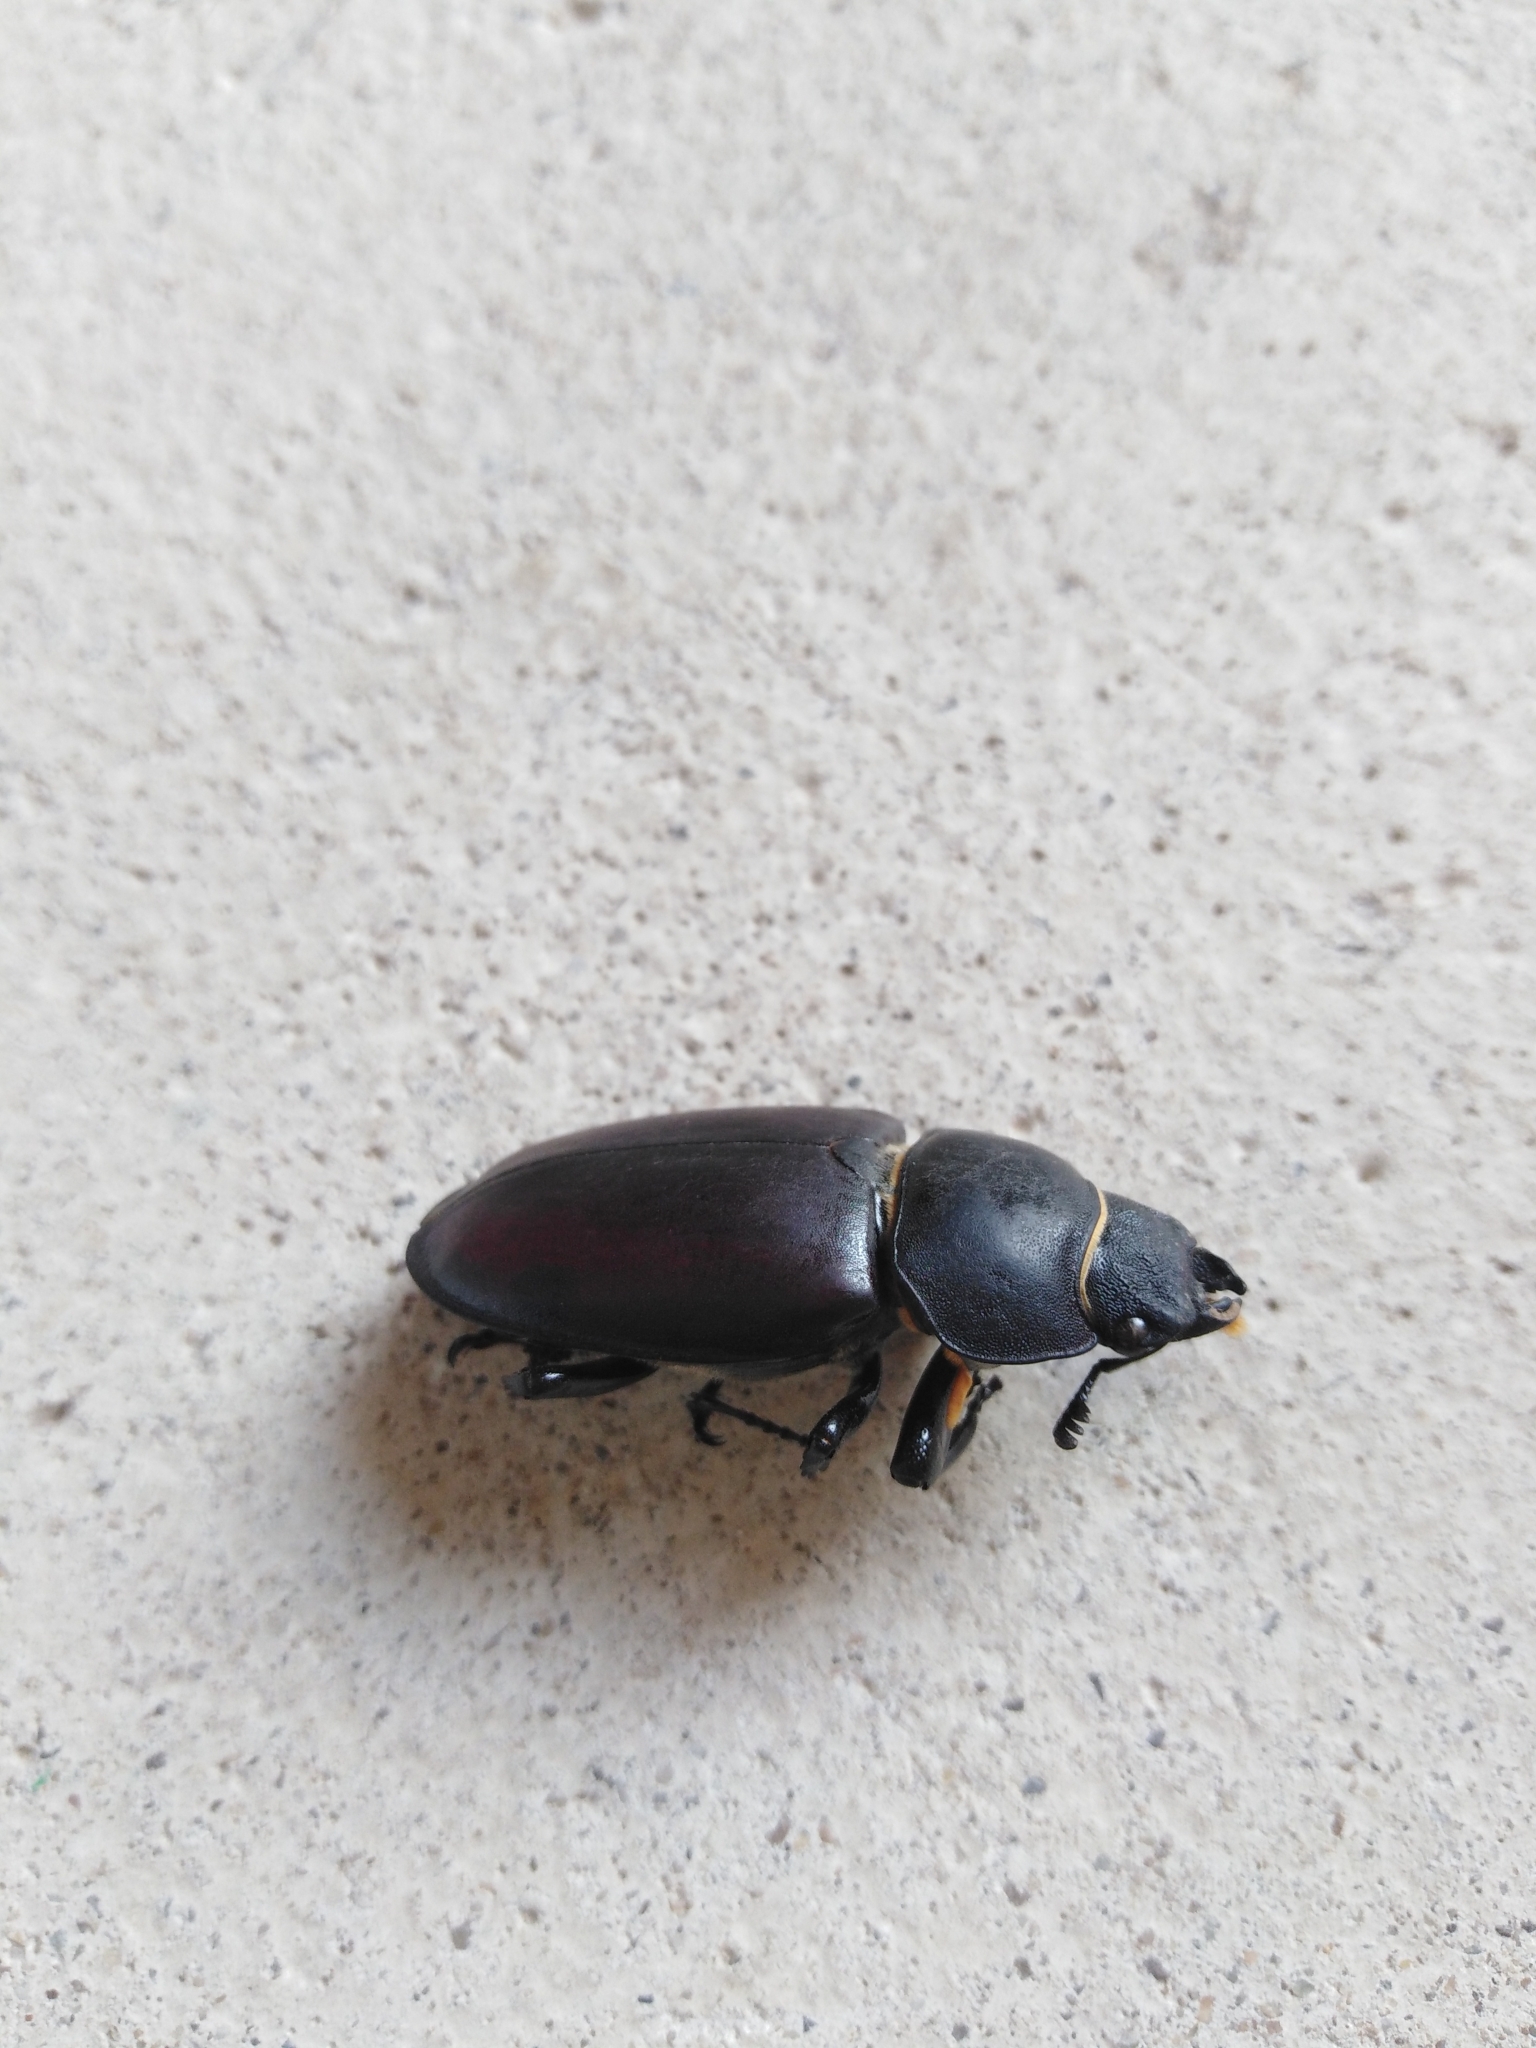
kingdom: Animalia
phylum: Arthropoda
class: Insecta
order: Coleoptera
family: Lucanidae
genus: Lucanus
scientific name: Lucanus cervus
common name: Stag beetle
